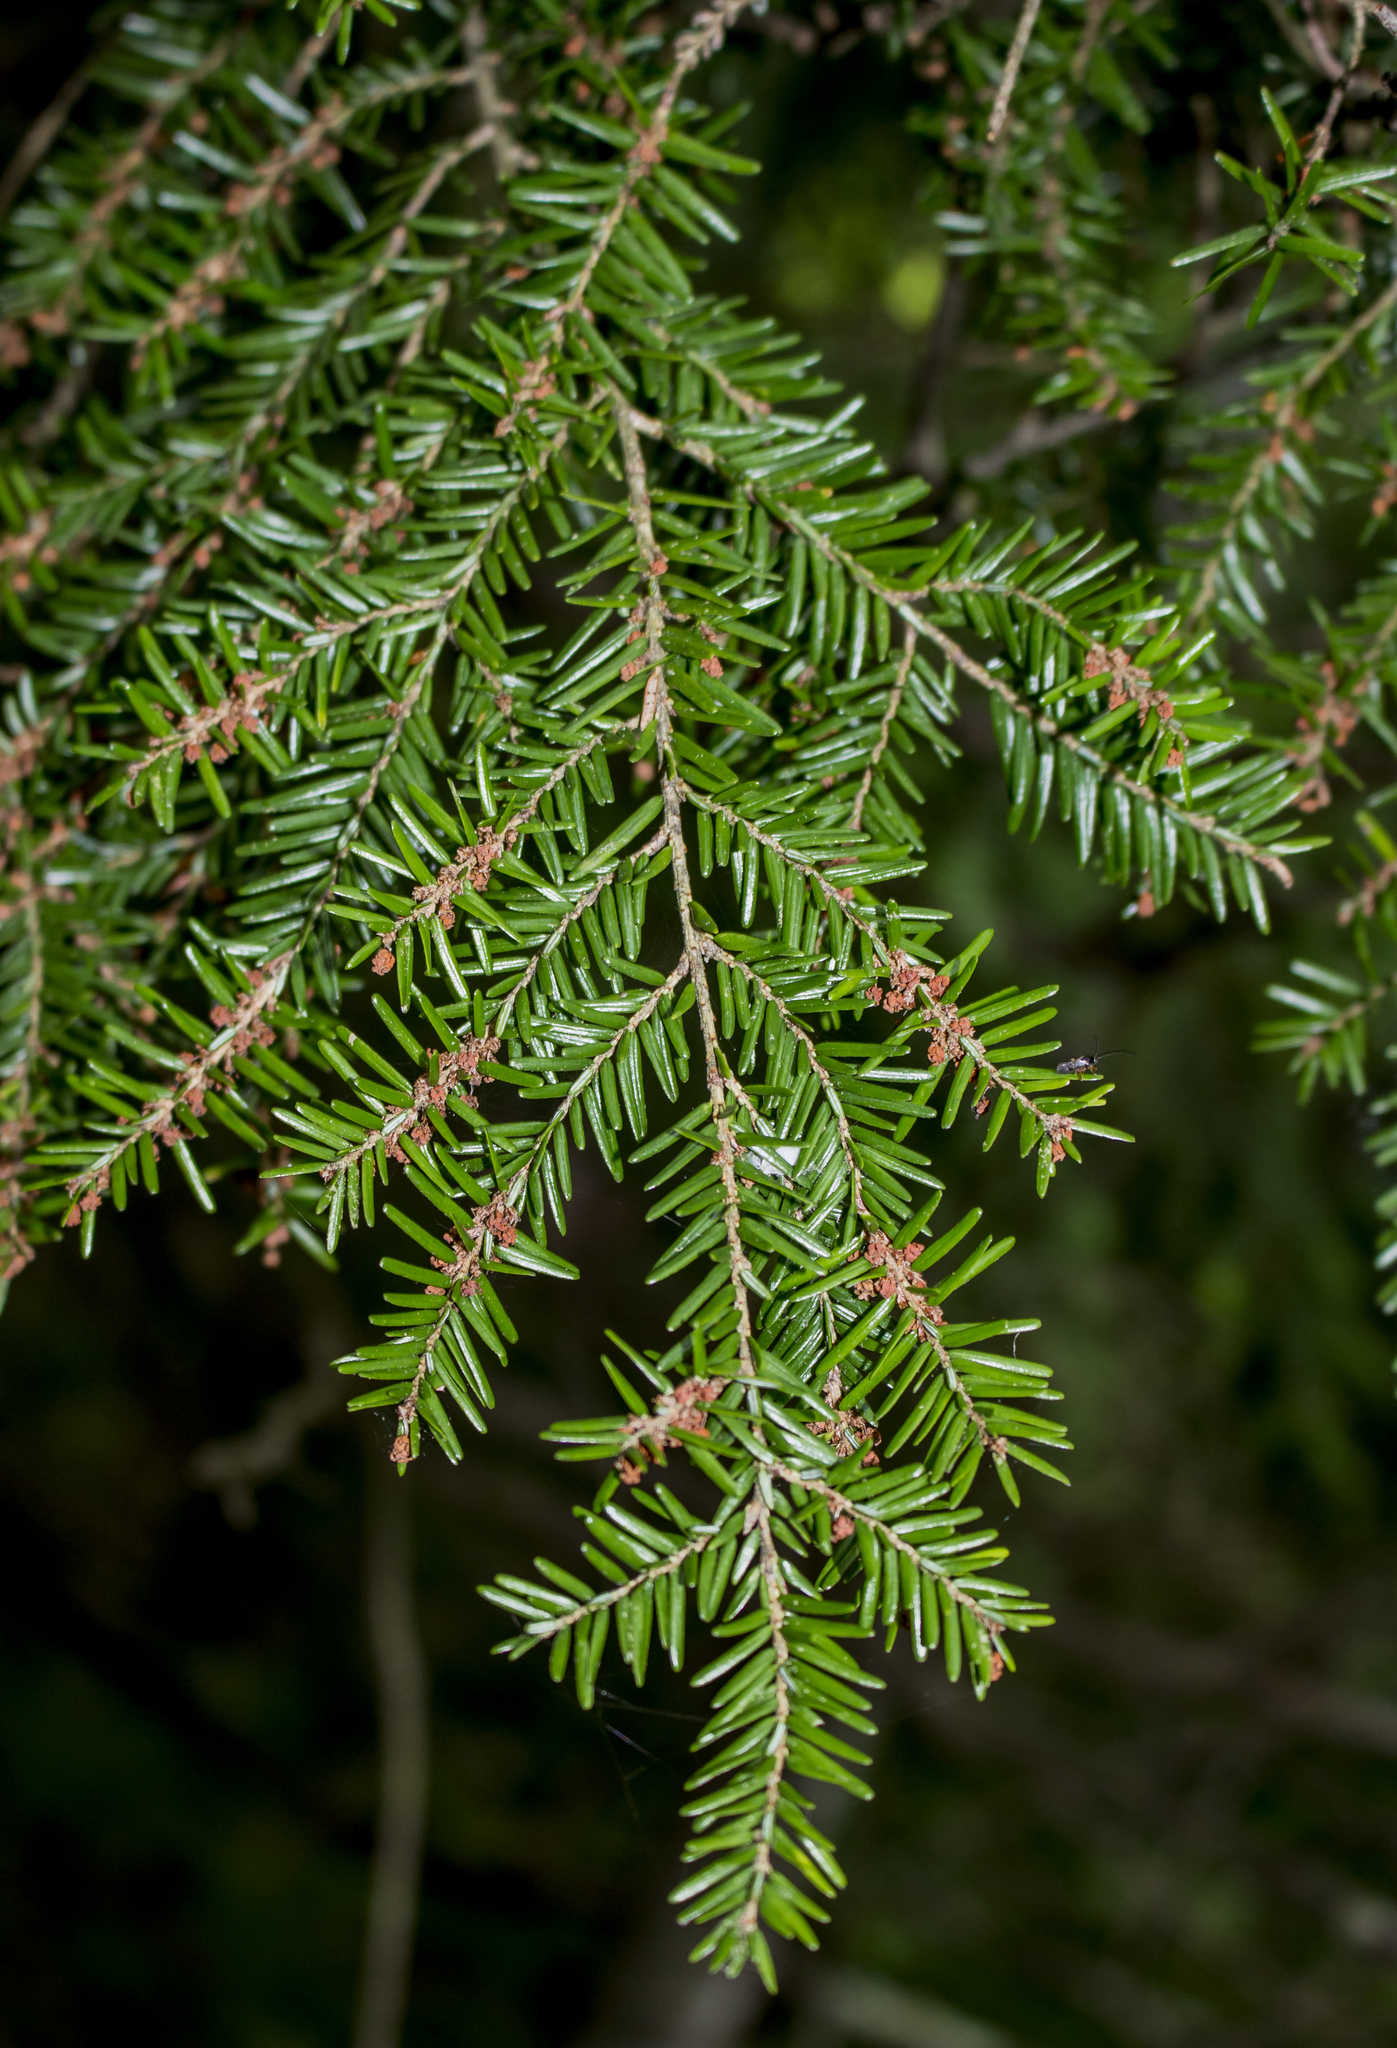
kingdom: Plantae
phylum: Tracheophyta
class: Pinopsida
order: Pinales
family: Pinaceae
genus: Tsuga
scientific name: Tsuga canadensis
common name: Eastern hemlock
